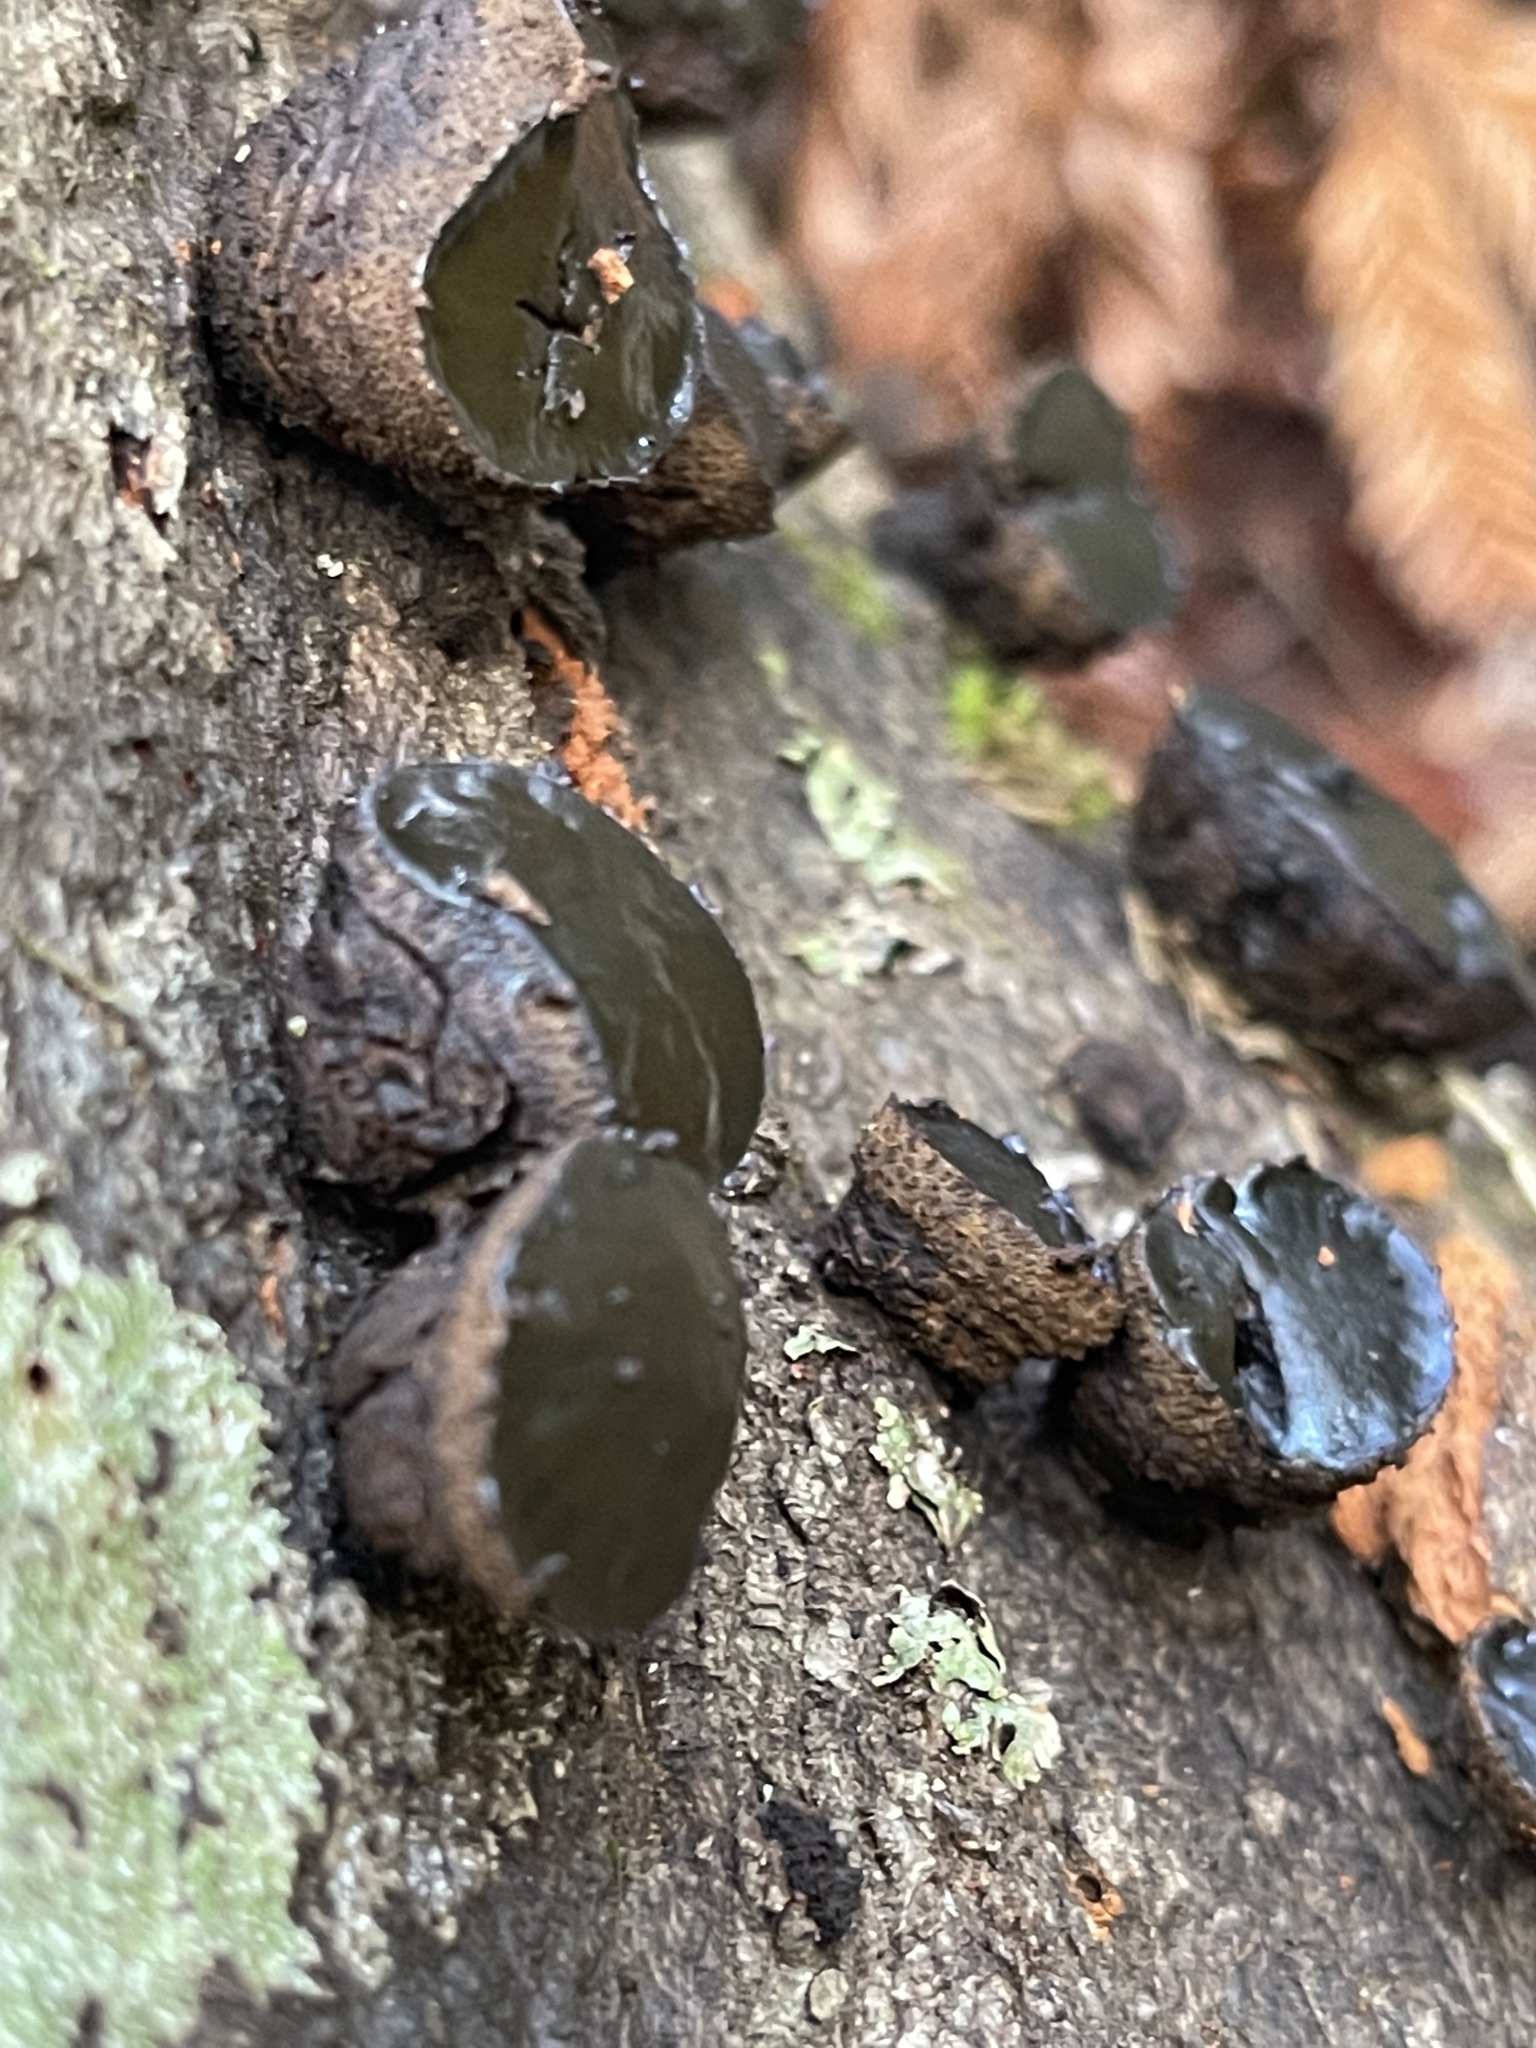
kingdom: Fungi
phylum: Ascomycota
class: Leotiomycetes
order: Phacidiales
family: Phacidiaceae
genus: Bulgaria
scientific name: Bulgaria inquinans
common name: Black bulgar
